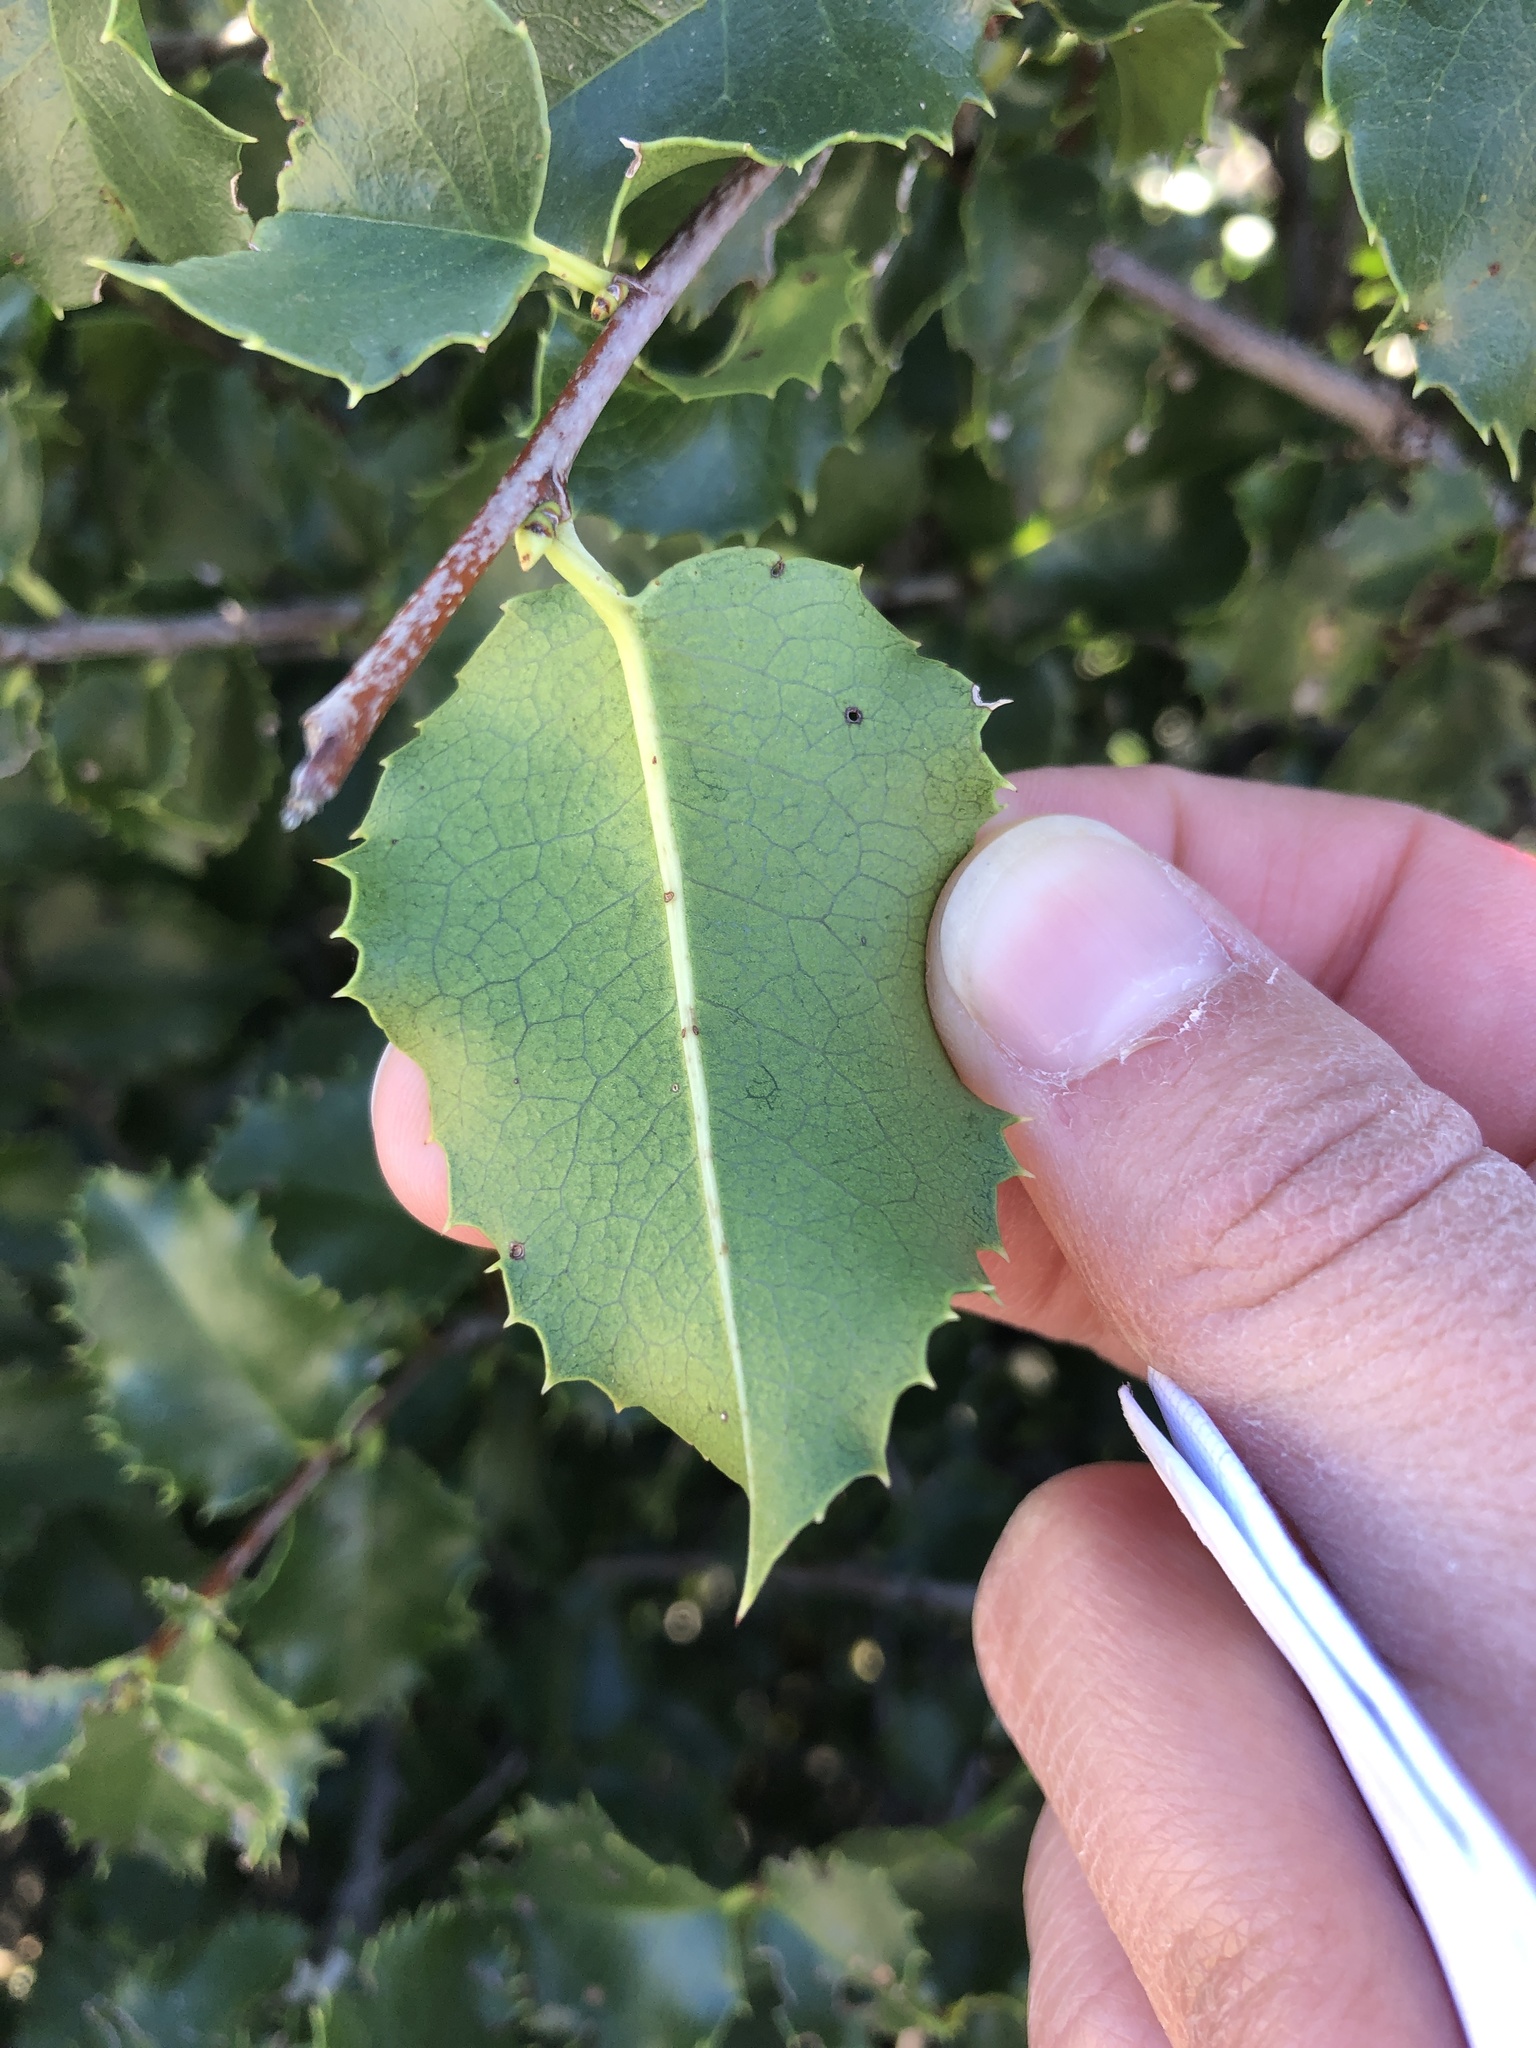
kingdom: Plantae
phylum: Tracheophyta
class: Magnoliopsida
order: Rosales
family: Rosaceae
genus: Prunus
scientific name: Prunus ilicifolia
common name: Hollyleaf cherry
